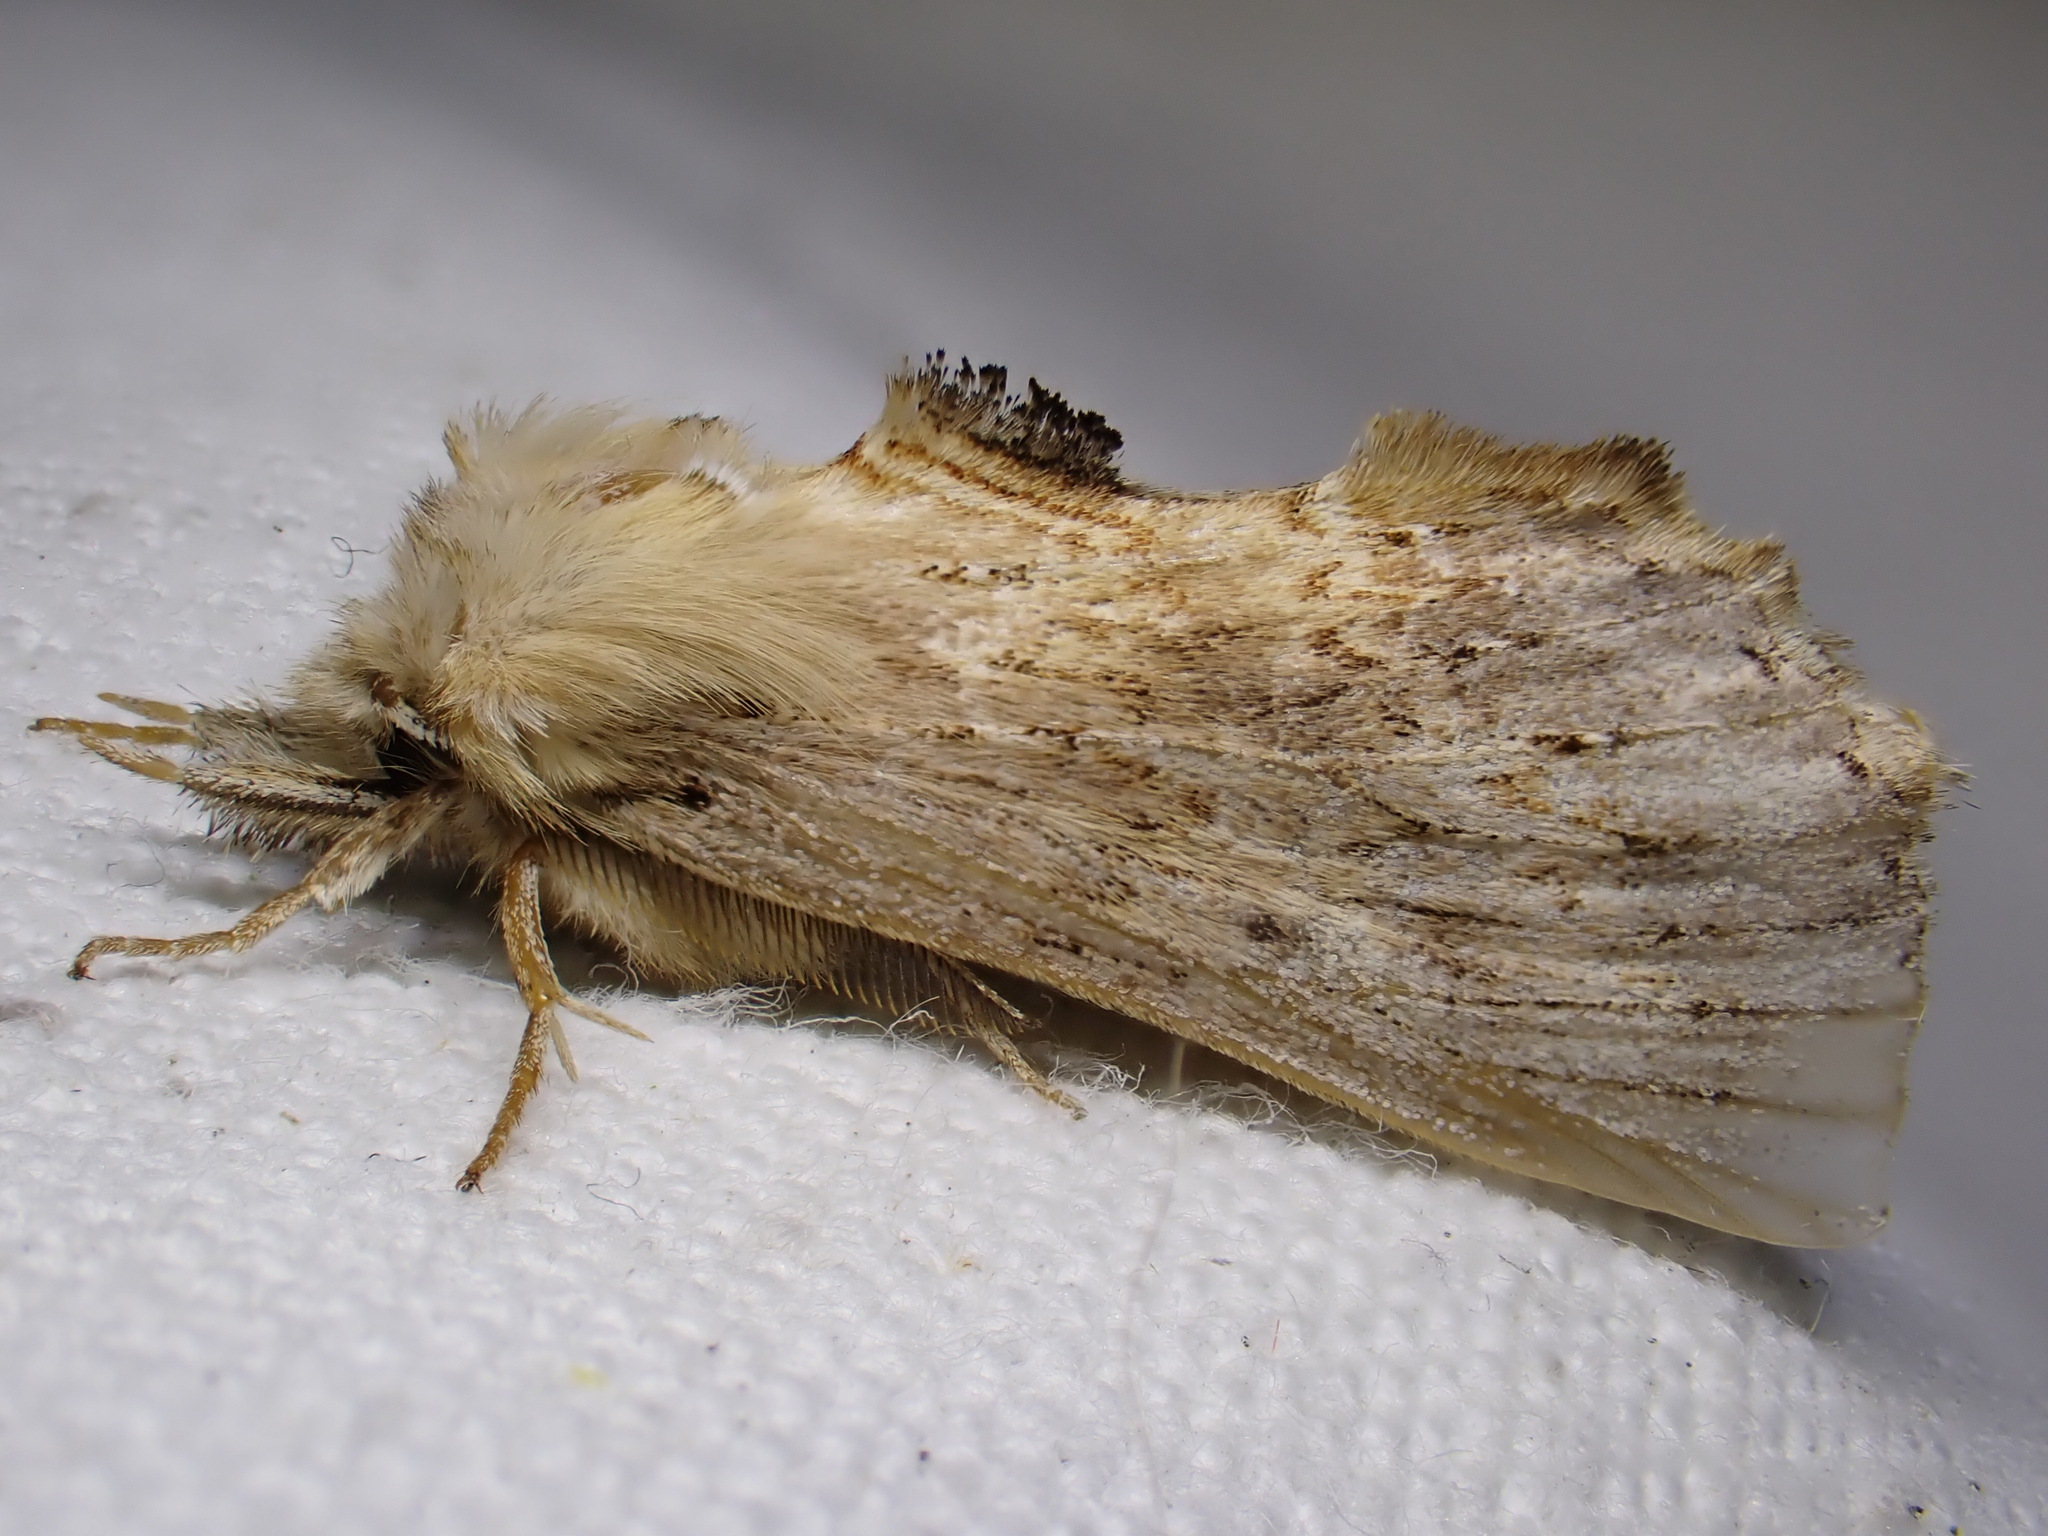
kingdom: Animalia
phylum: Arthropoda
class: Insecta
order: Lepidoptera
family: Notodontidae
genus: Pterostoma
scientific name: Pterostoma palpina
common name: Pale prominent
